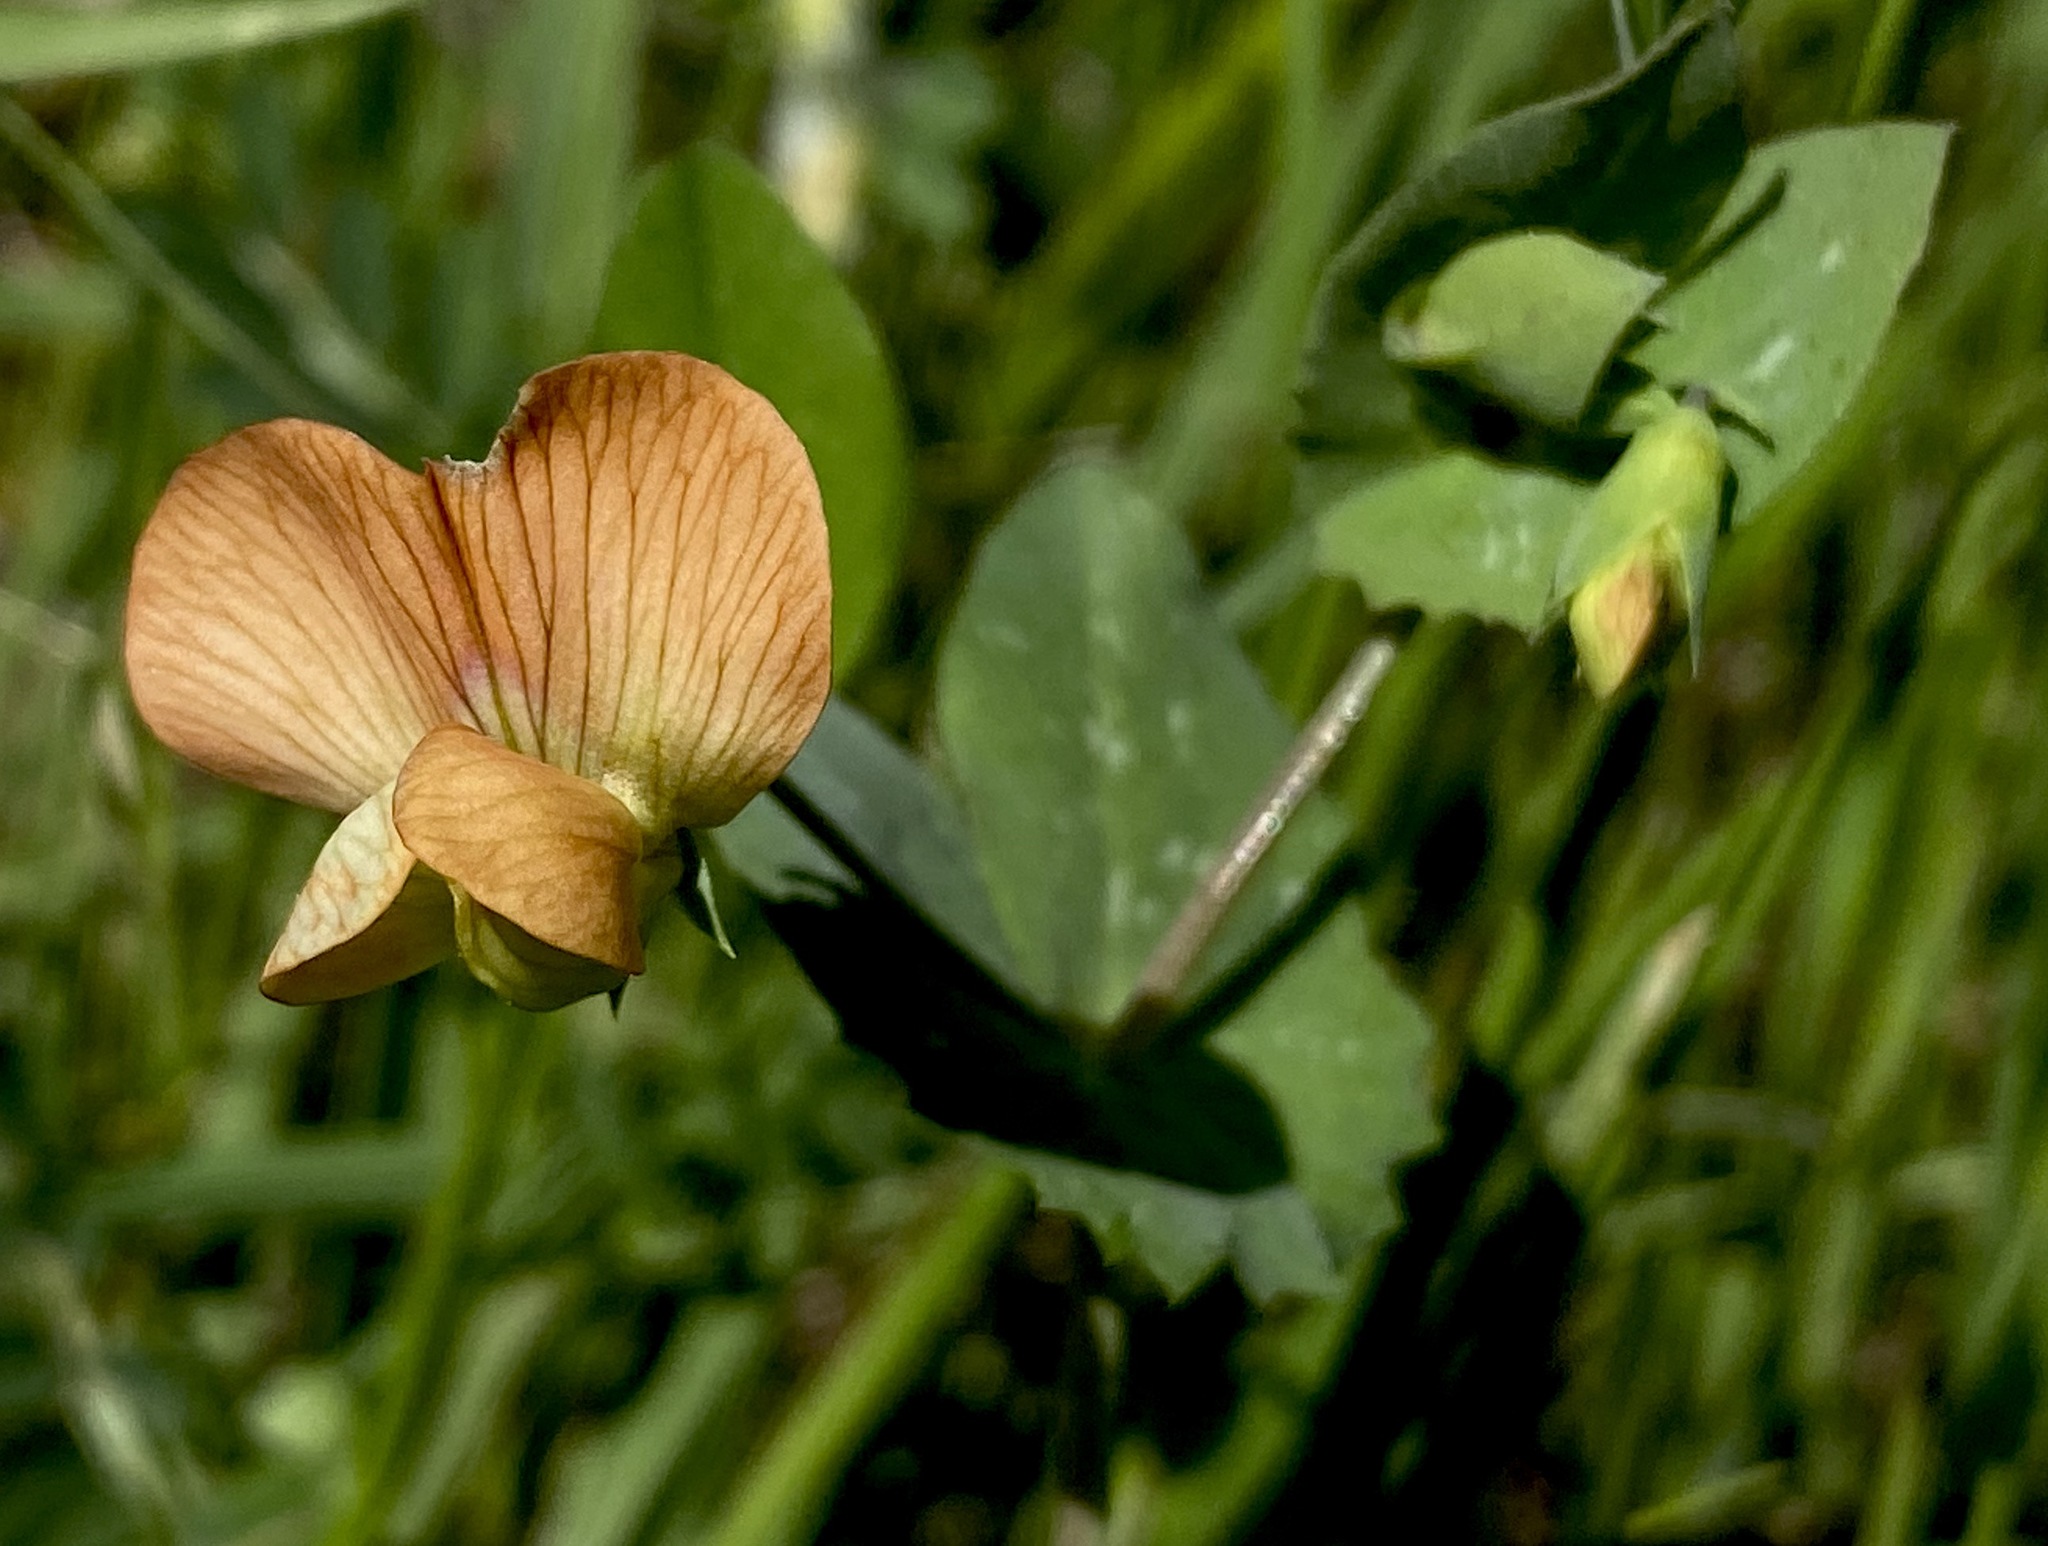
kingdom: Plantae
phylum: Tracheophyta
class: Magnoliopsida
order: Fabales
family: Fabaceae
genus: Lathyrus
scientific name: Lathyrus fulvus
